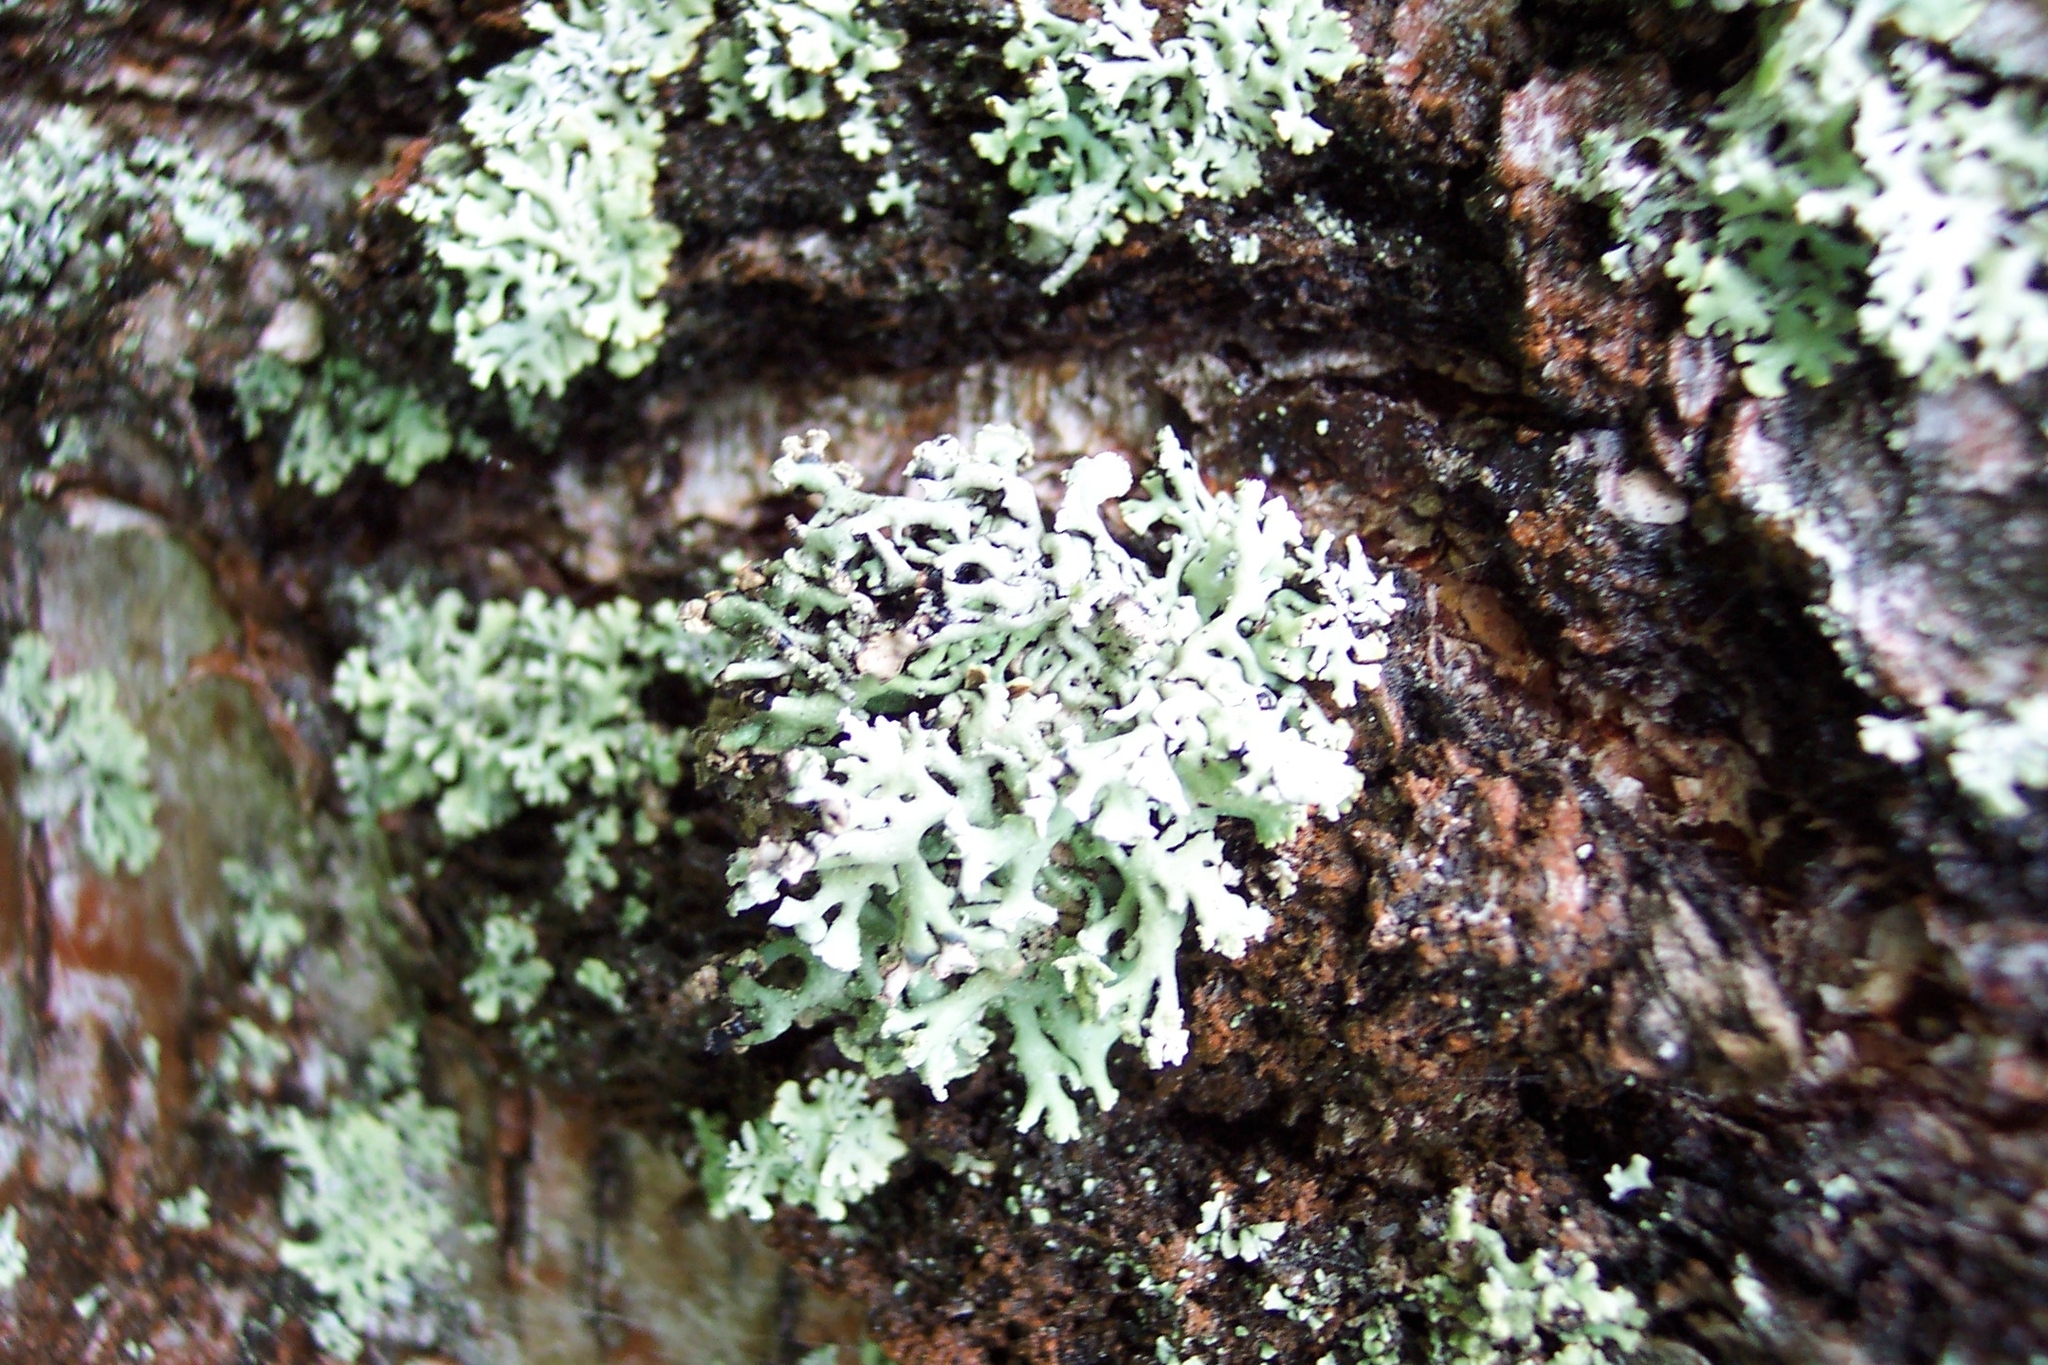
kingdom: Fungi
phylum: Ascomycota
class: Lecanoromycetes
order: Lecanorales
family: Parmeliaceae
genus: Hypogymnia
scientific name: Hypogymnia physodes
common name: Dark crottle
